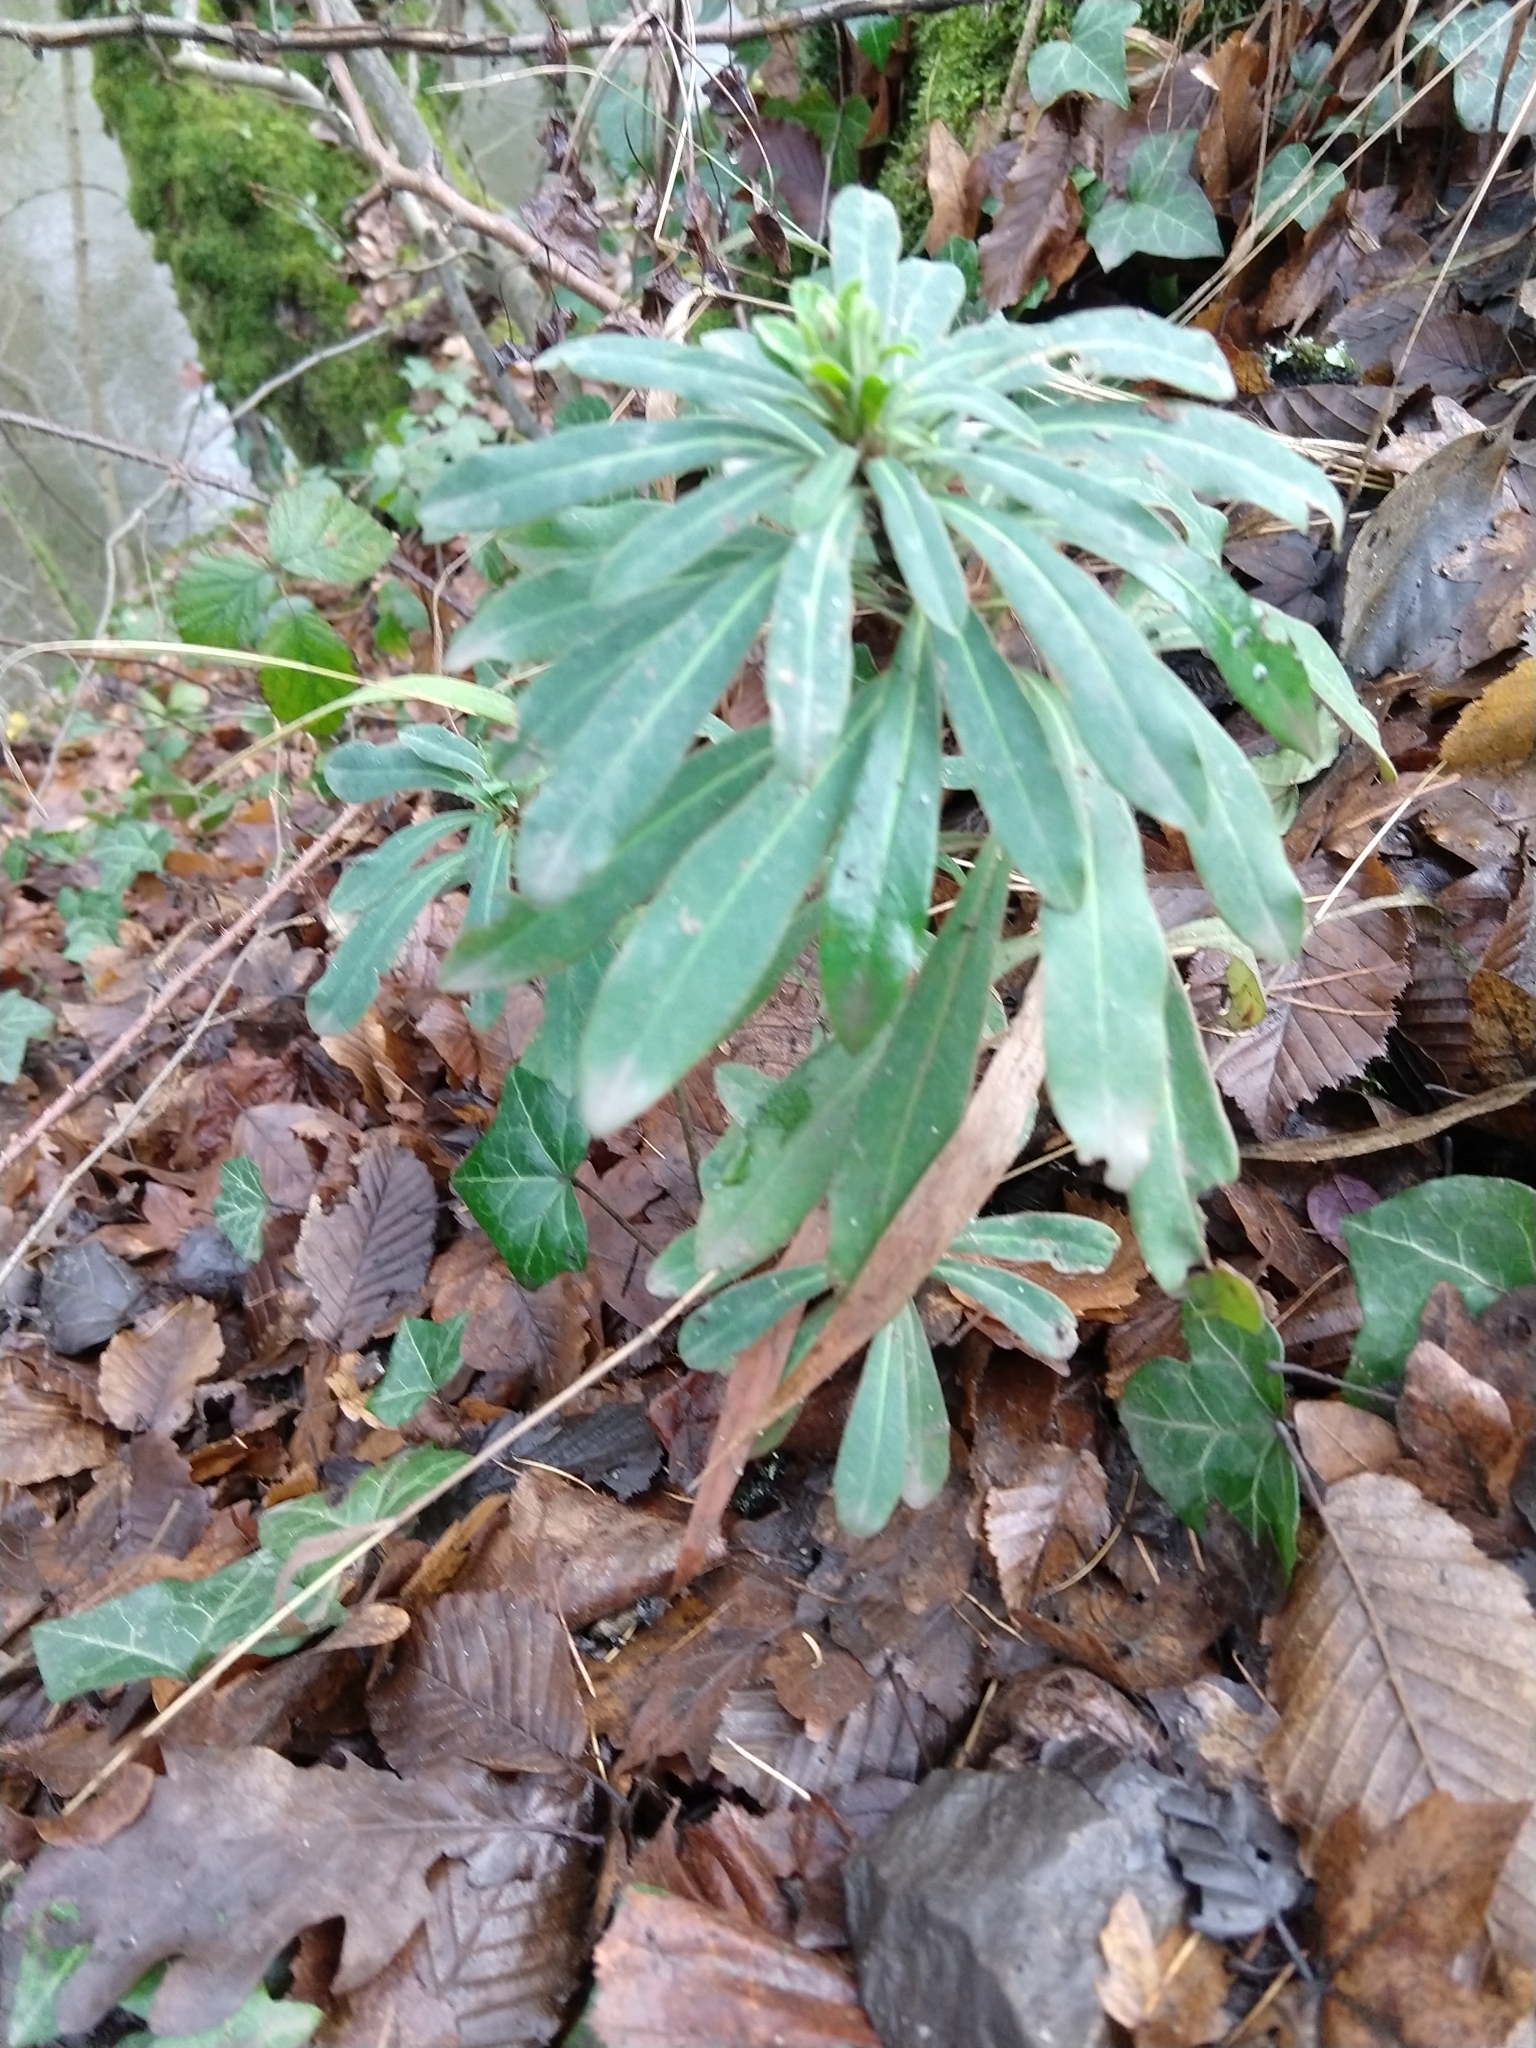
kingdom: Plantae
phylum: Tracheophyta
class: Magnoliopsida
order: Malpighiales
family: Euphorbiaceae
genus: Euphorbia
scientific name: Euphorbia amygdaloides
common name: Wood spurge
